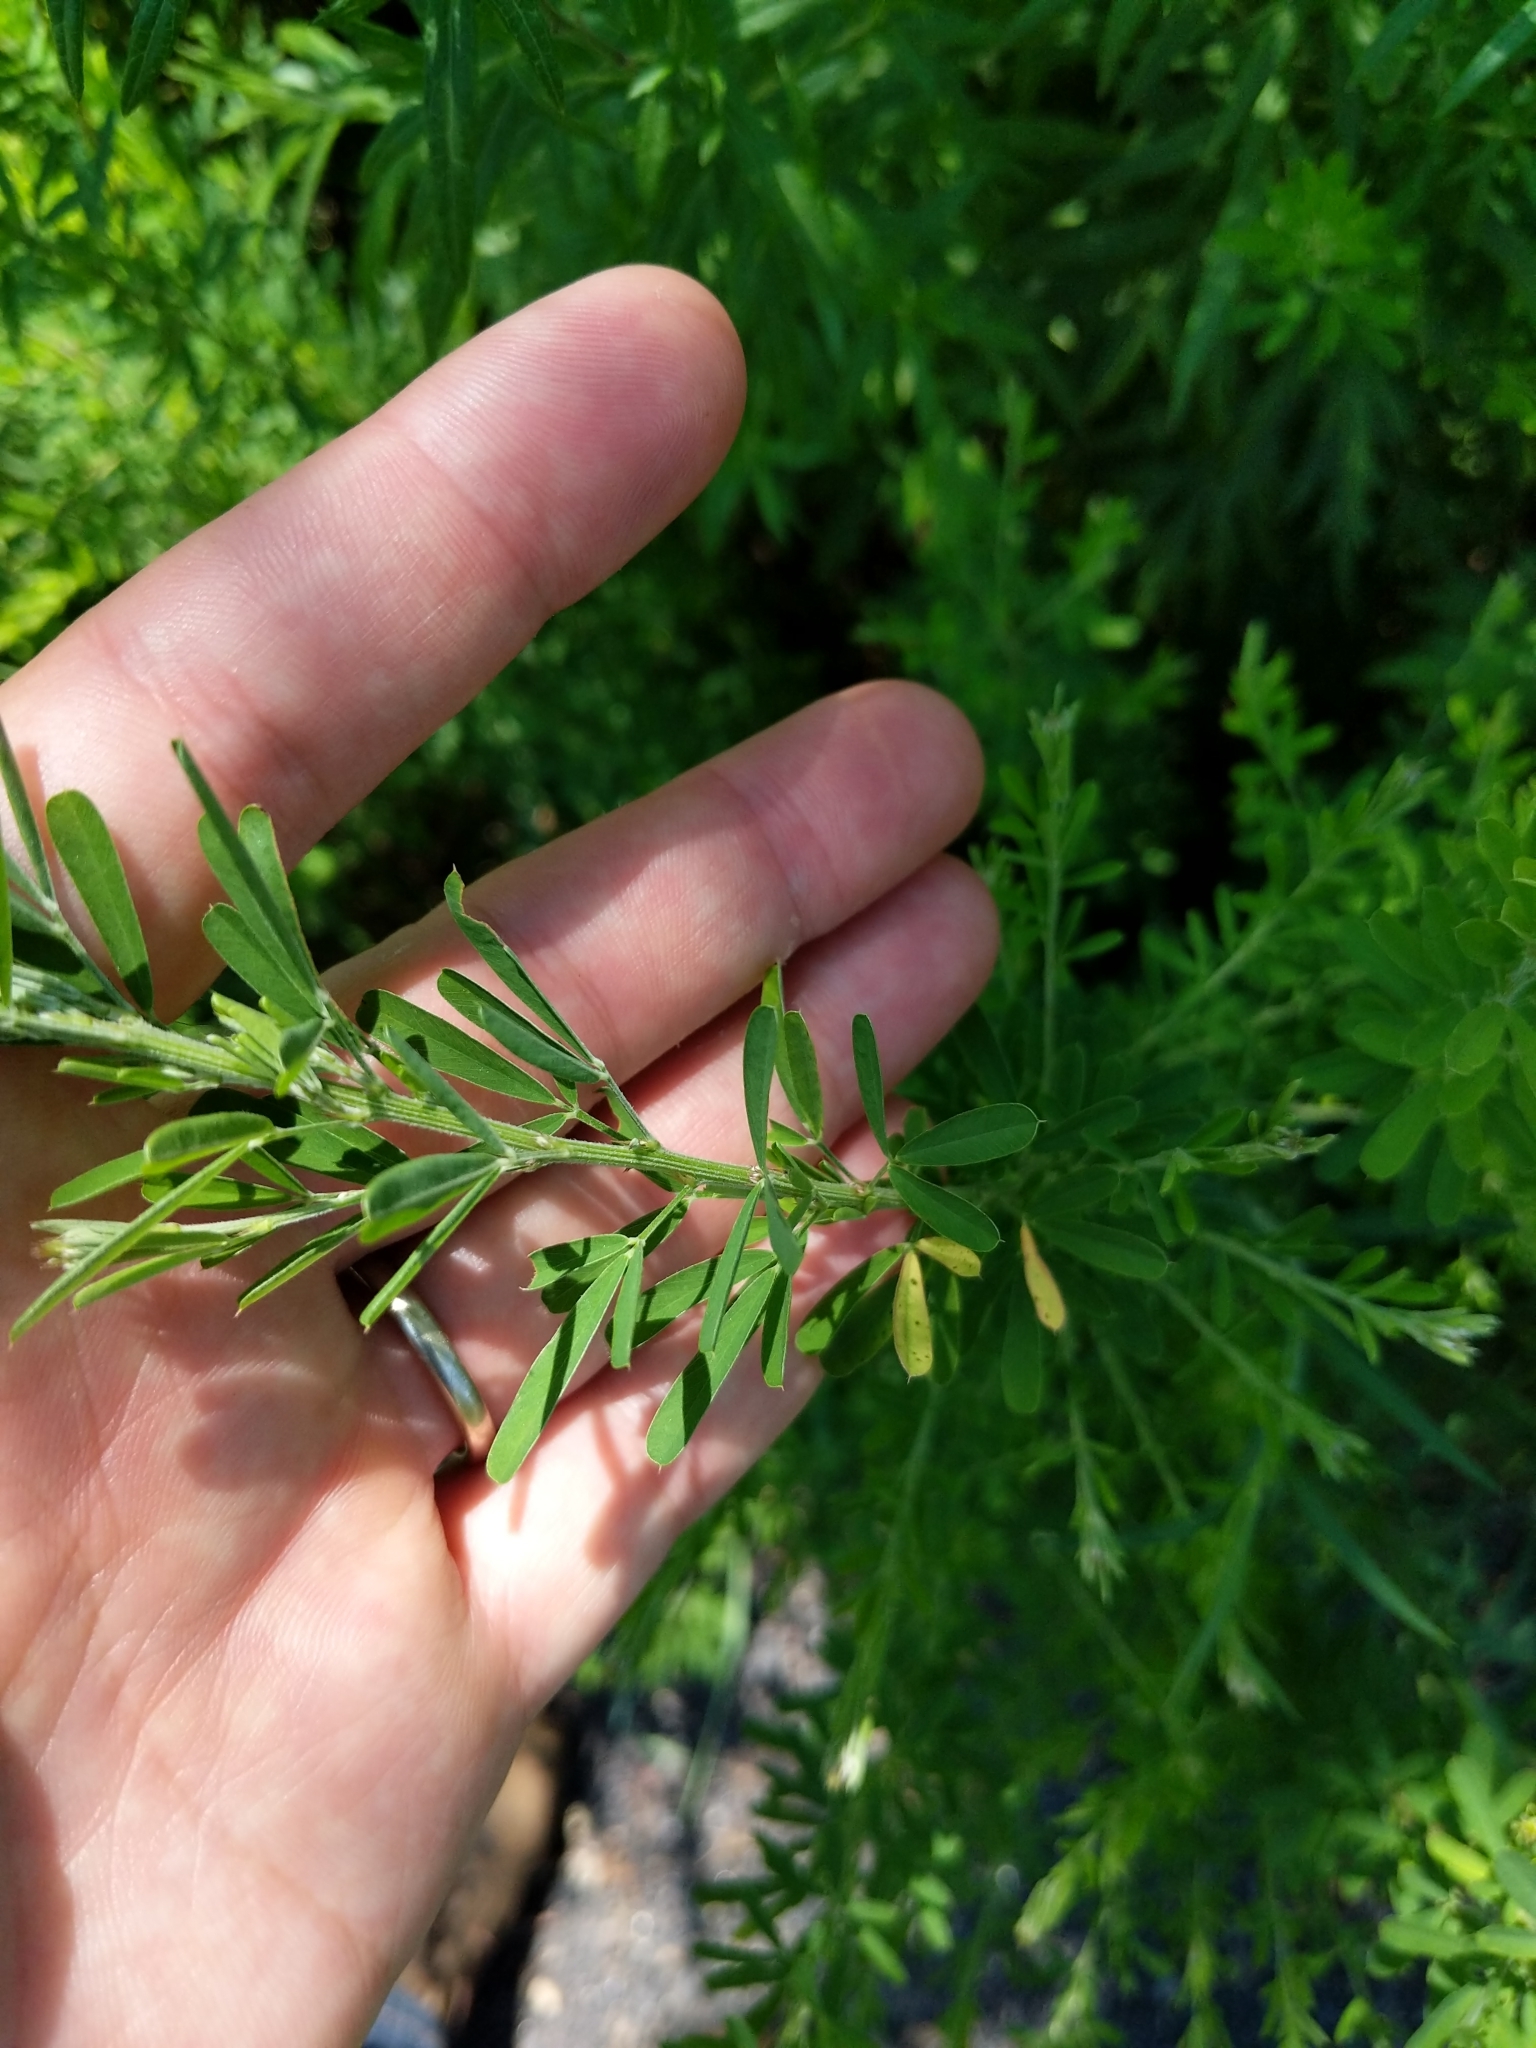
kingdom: Plantae
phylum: Tracheophyta
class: Magnoliopsida
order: Fabales
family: Fabaceae
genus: Lespedeza
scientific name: Lespedeza cuneata
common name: Chinese bush-clover
